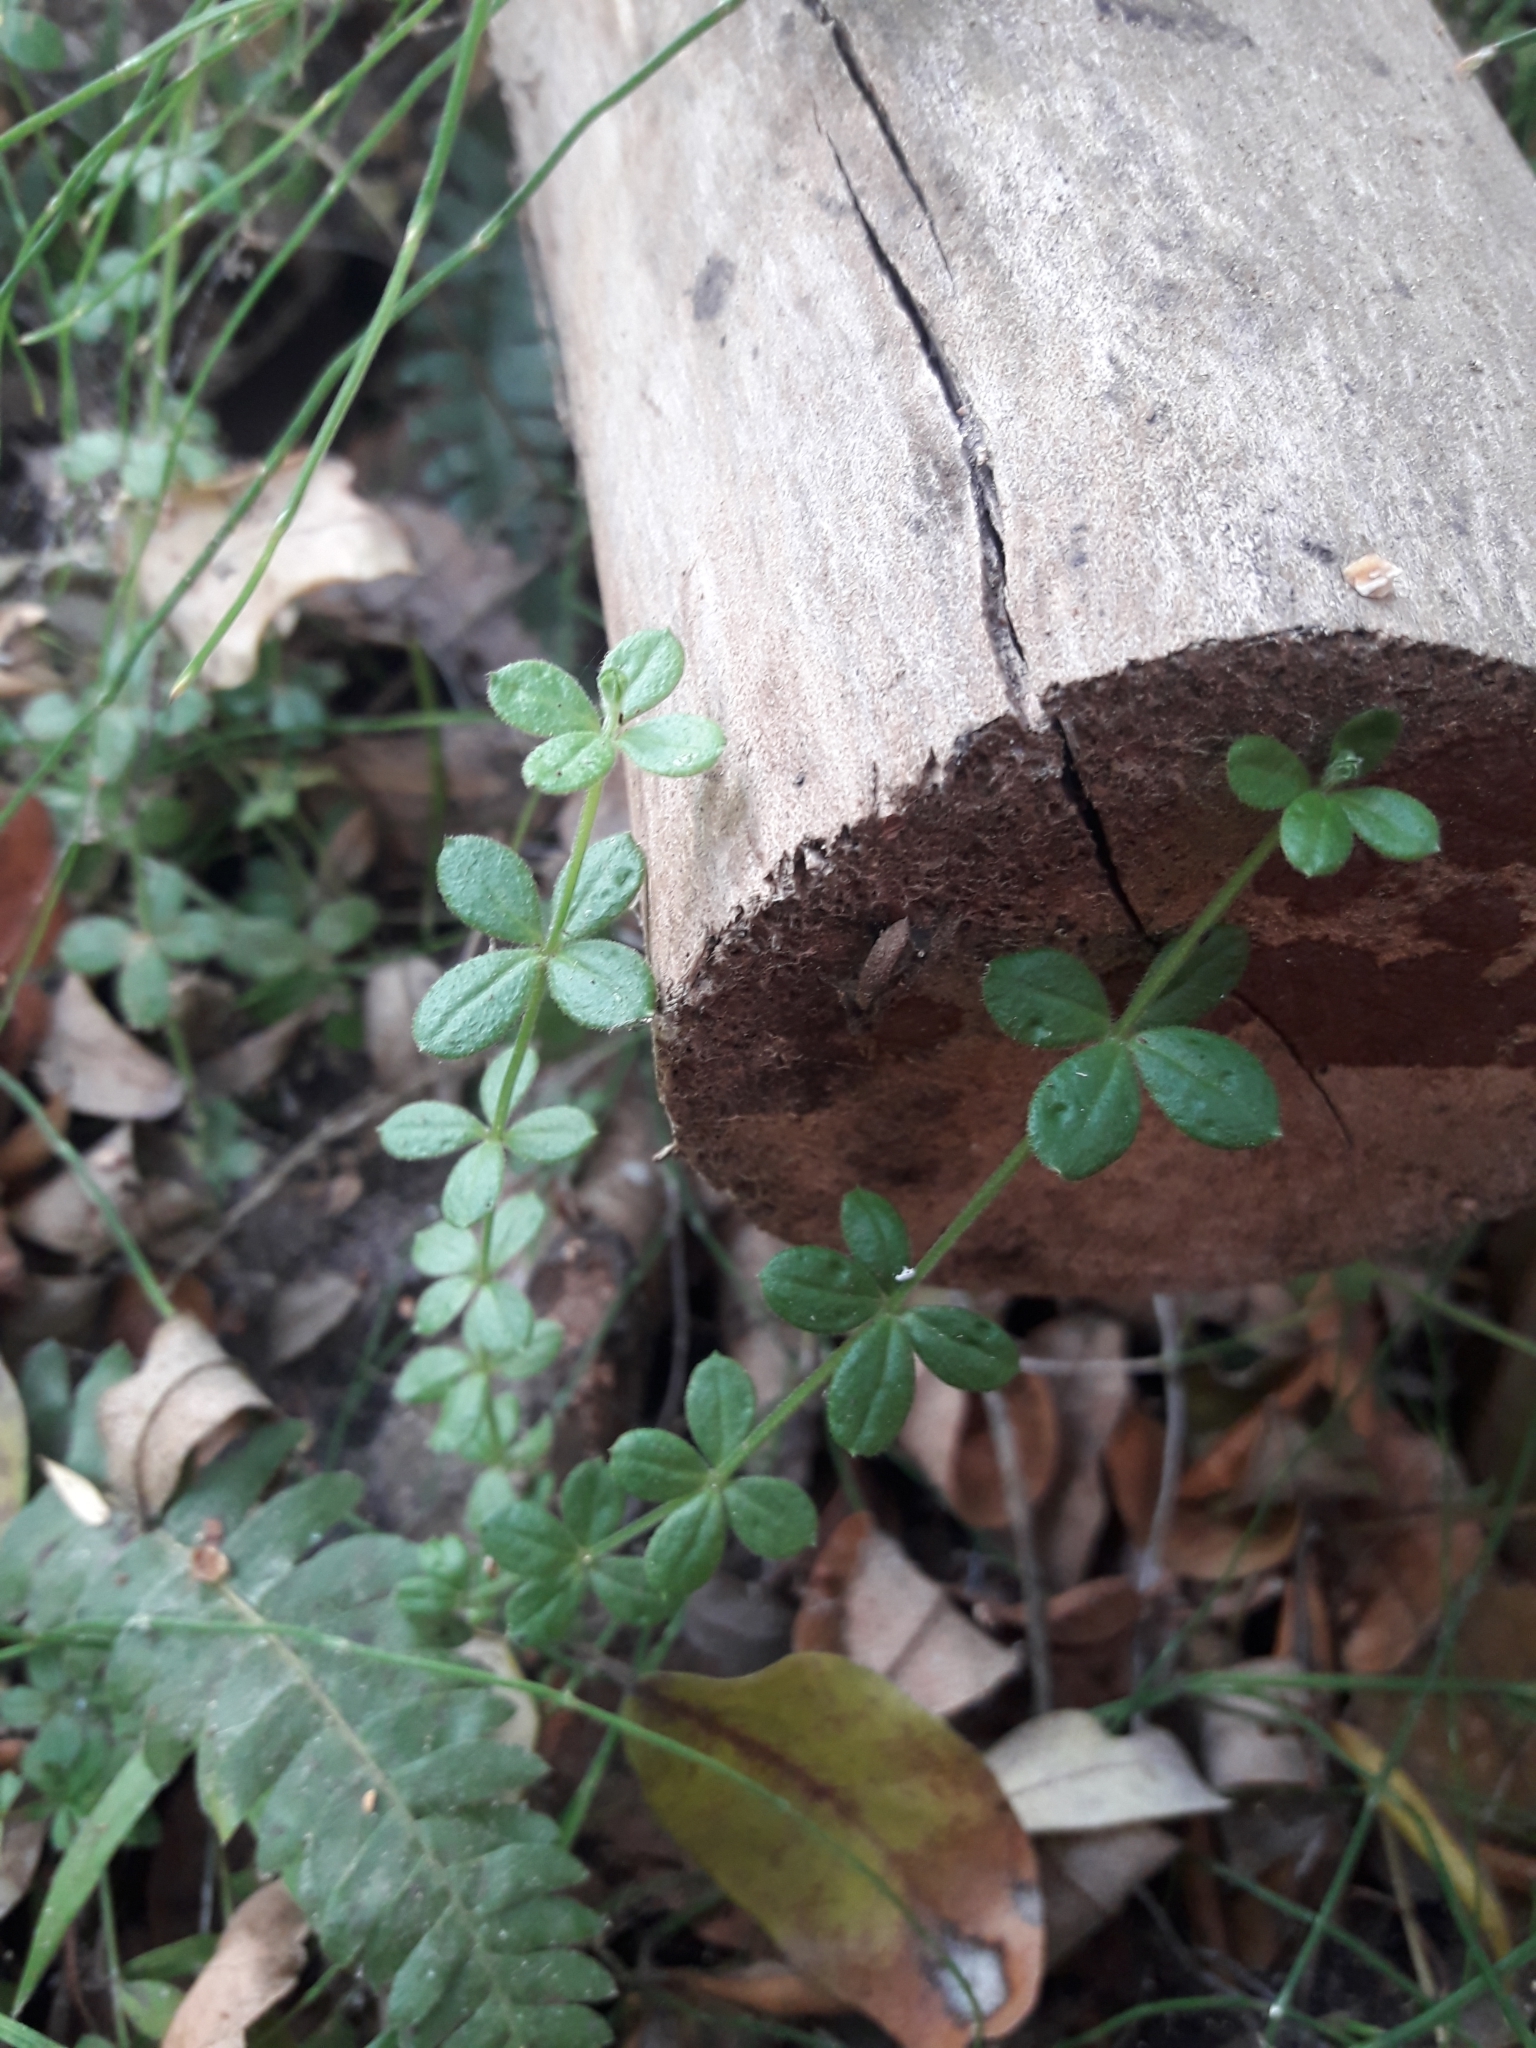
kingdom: Plantae
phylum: Tracheophyta
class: Magnoliopsida
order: Gentianales
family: Rubiaceae
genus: Galium
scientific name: Galium hypocarpium
